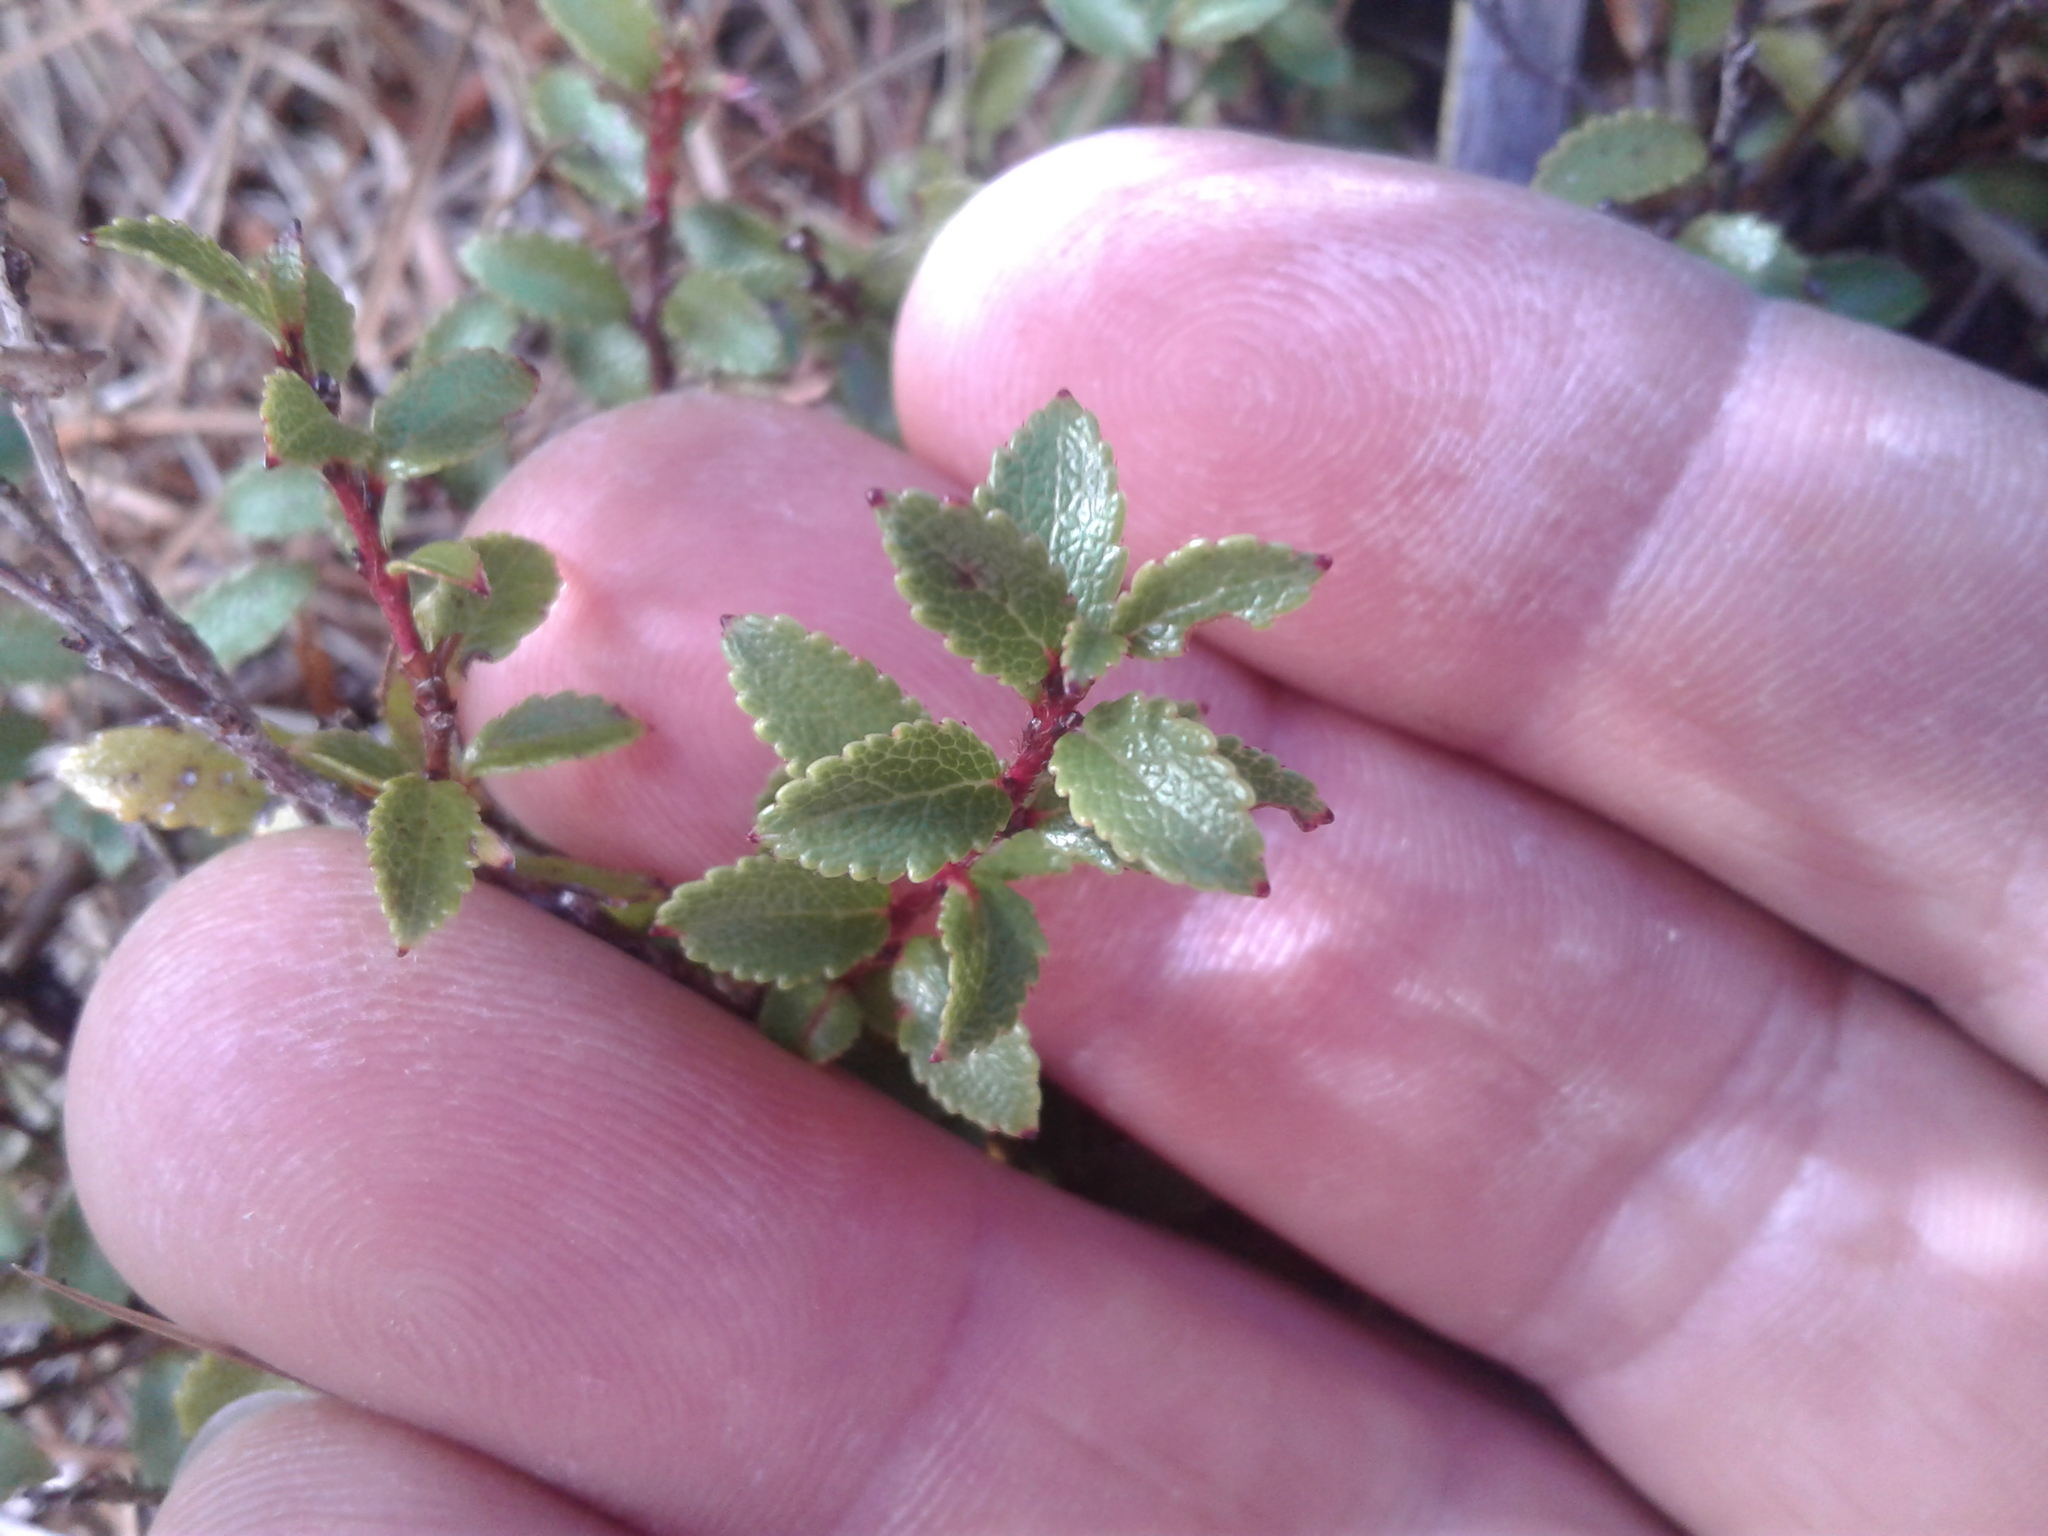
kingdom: Plantae
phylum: Tracheophyta
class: Magnoliopsida
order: Ericales
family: Ericaceae
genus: Gaultheria
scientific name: Gaultheria depressa
